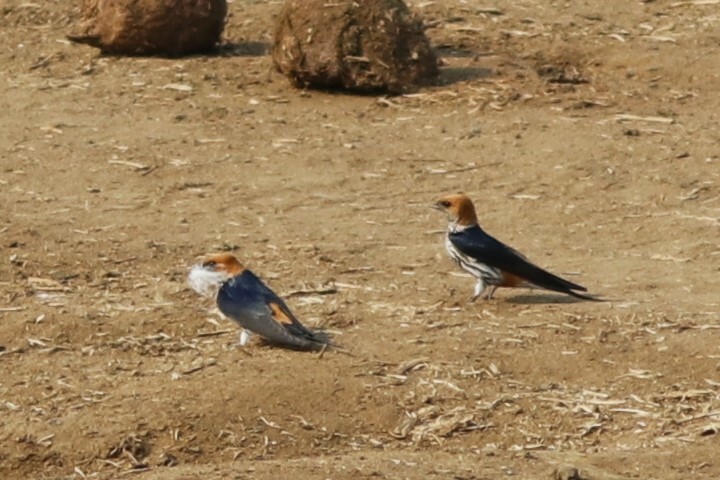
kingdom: Animalia
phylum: Chordata
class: Aves
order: Passeriformes
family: Hirundinidae
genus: Cecropis
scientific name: Cecropis abyssinica
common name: Lesser striped-swallow
